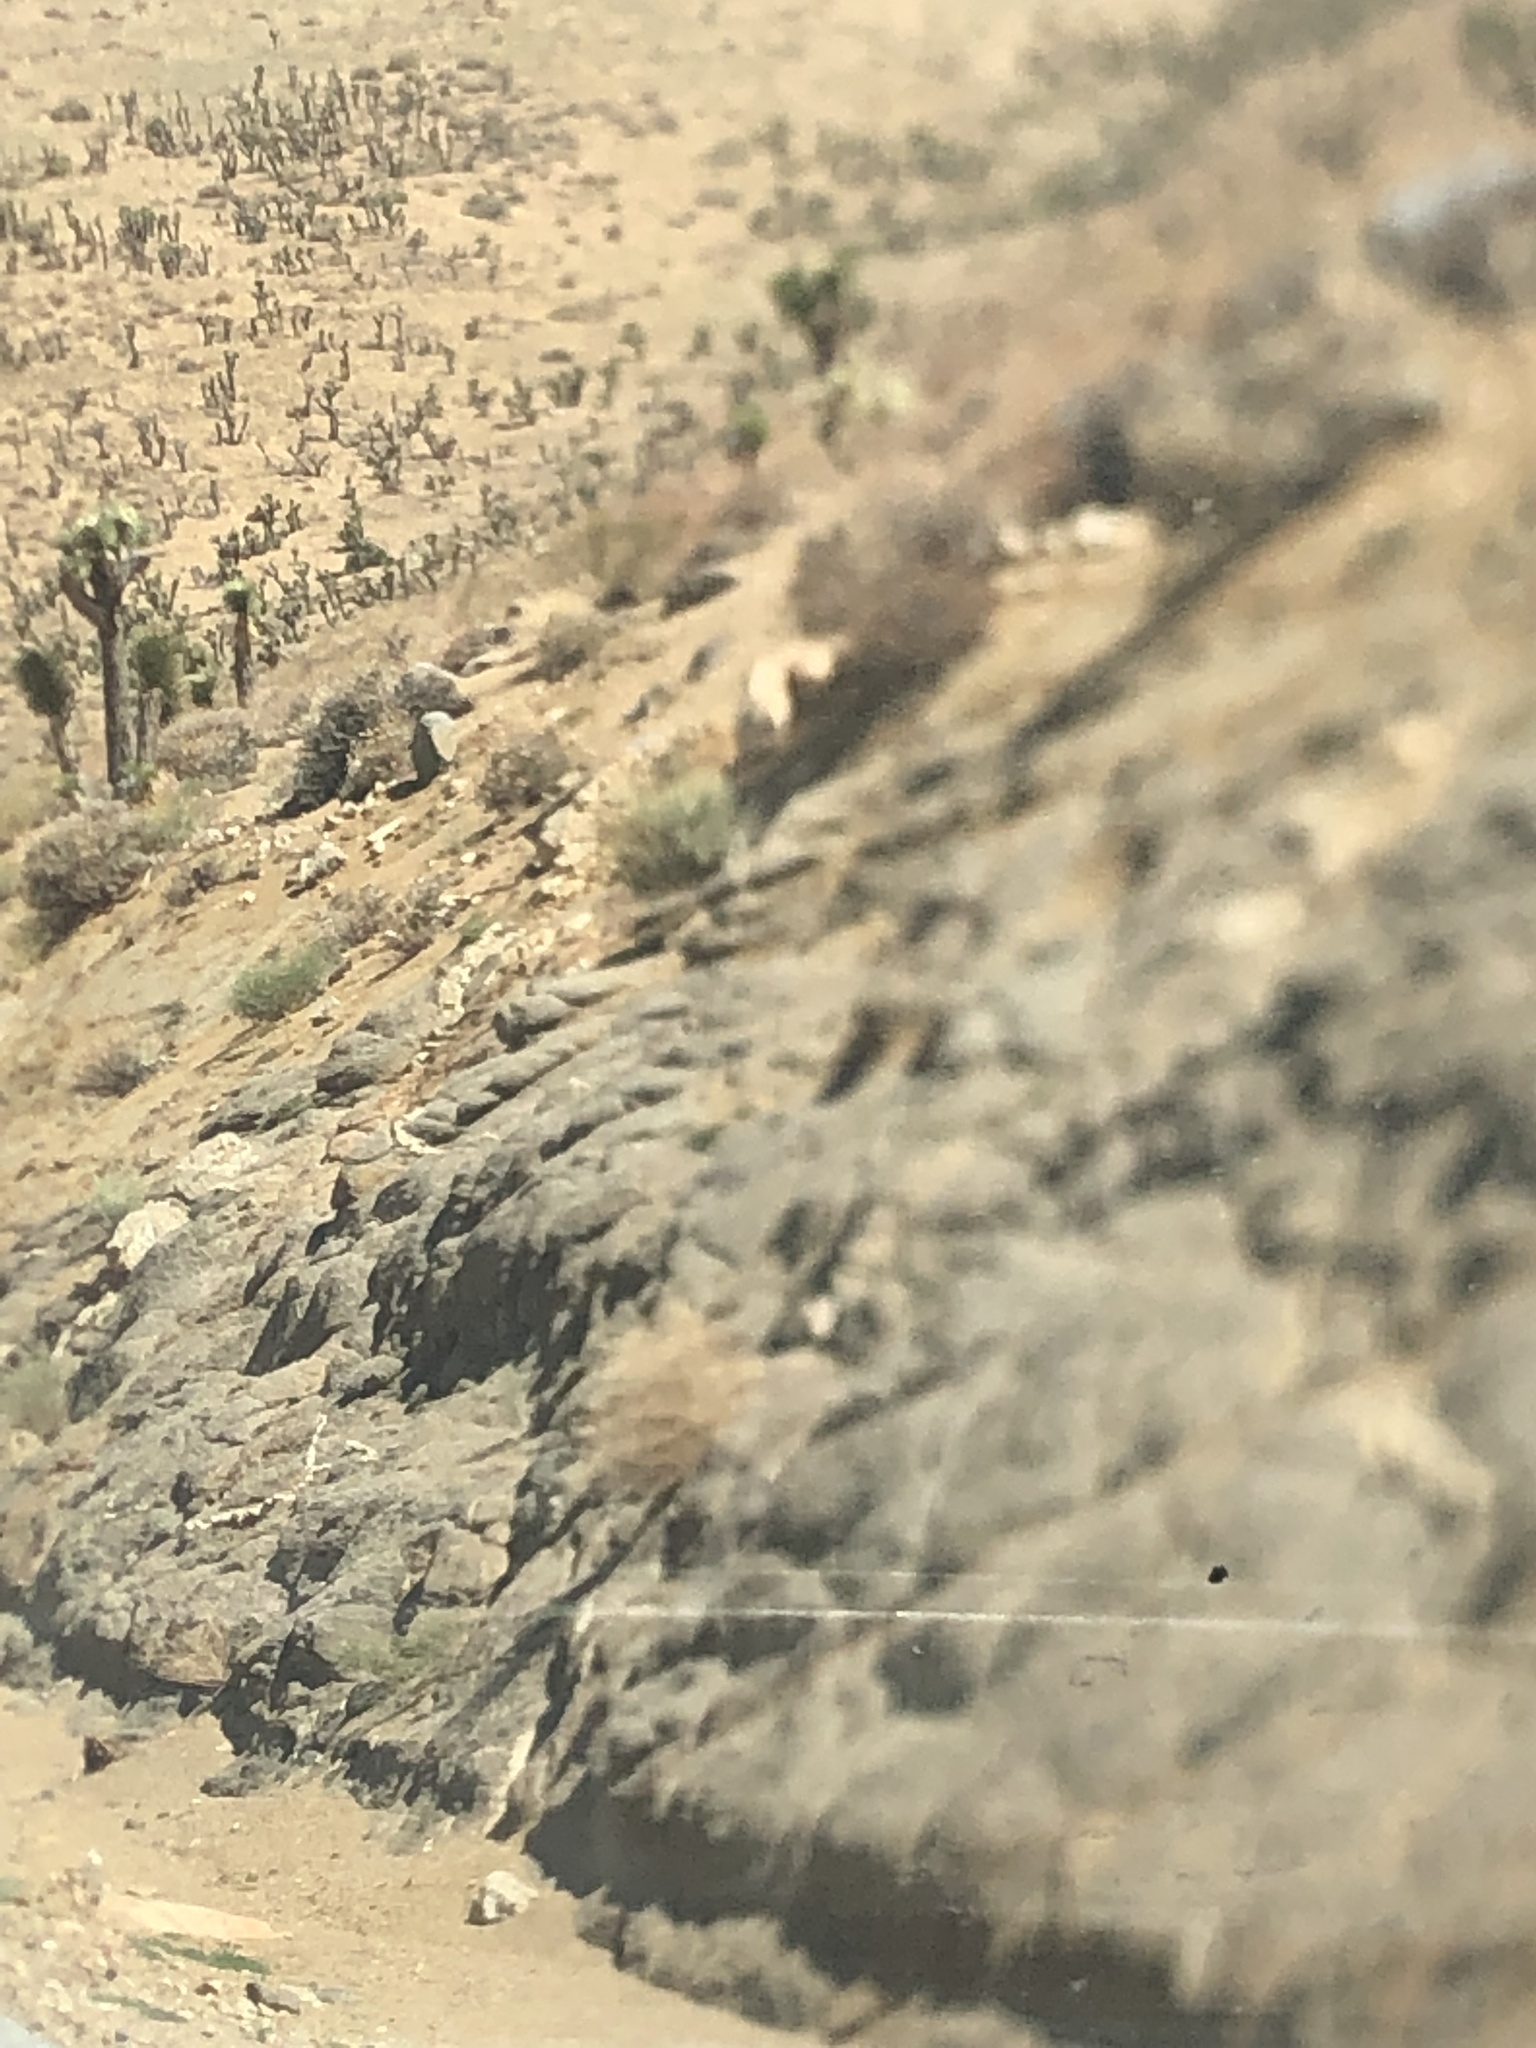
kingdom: Plantae
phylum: Tracheophyta
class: Liliopsida
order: Asparagales
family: Asparagaceae
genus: Yucca
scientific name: Yucca brevifolia
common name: Joshua tree
